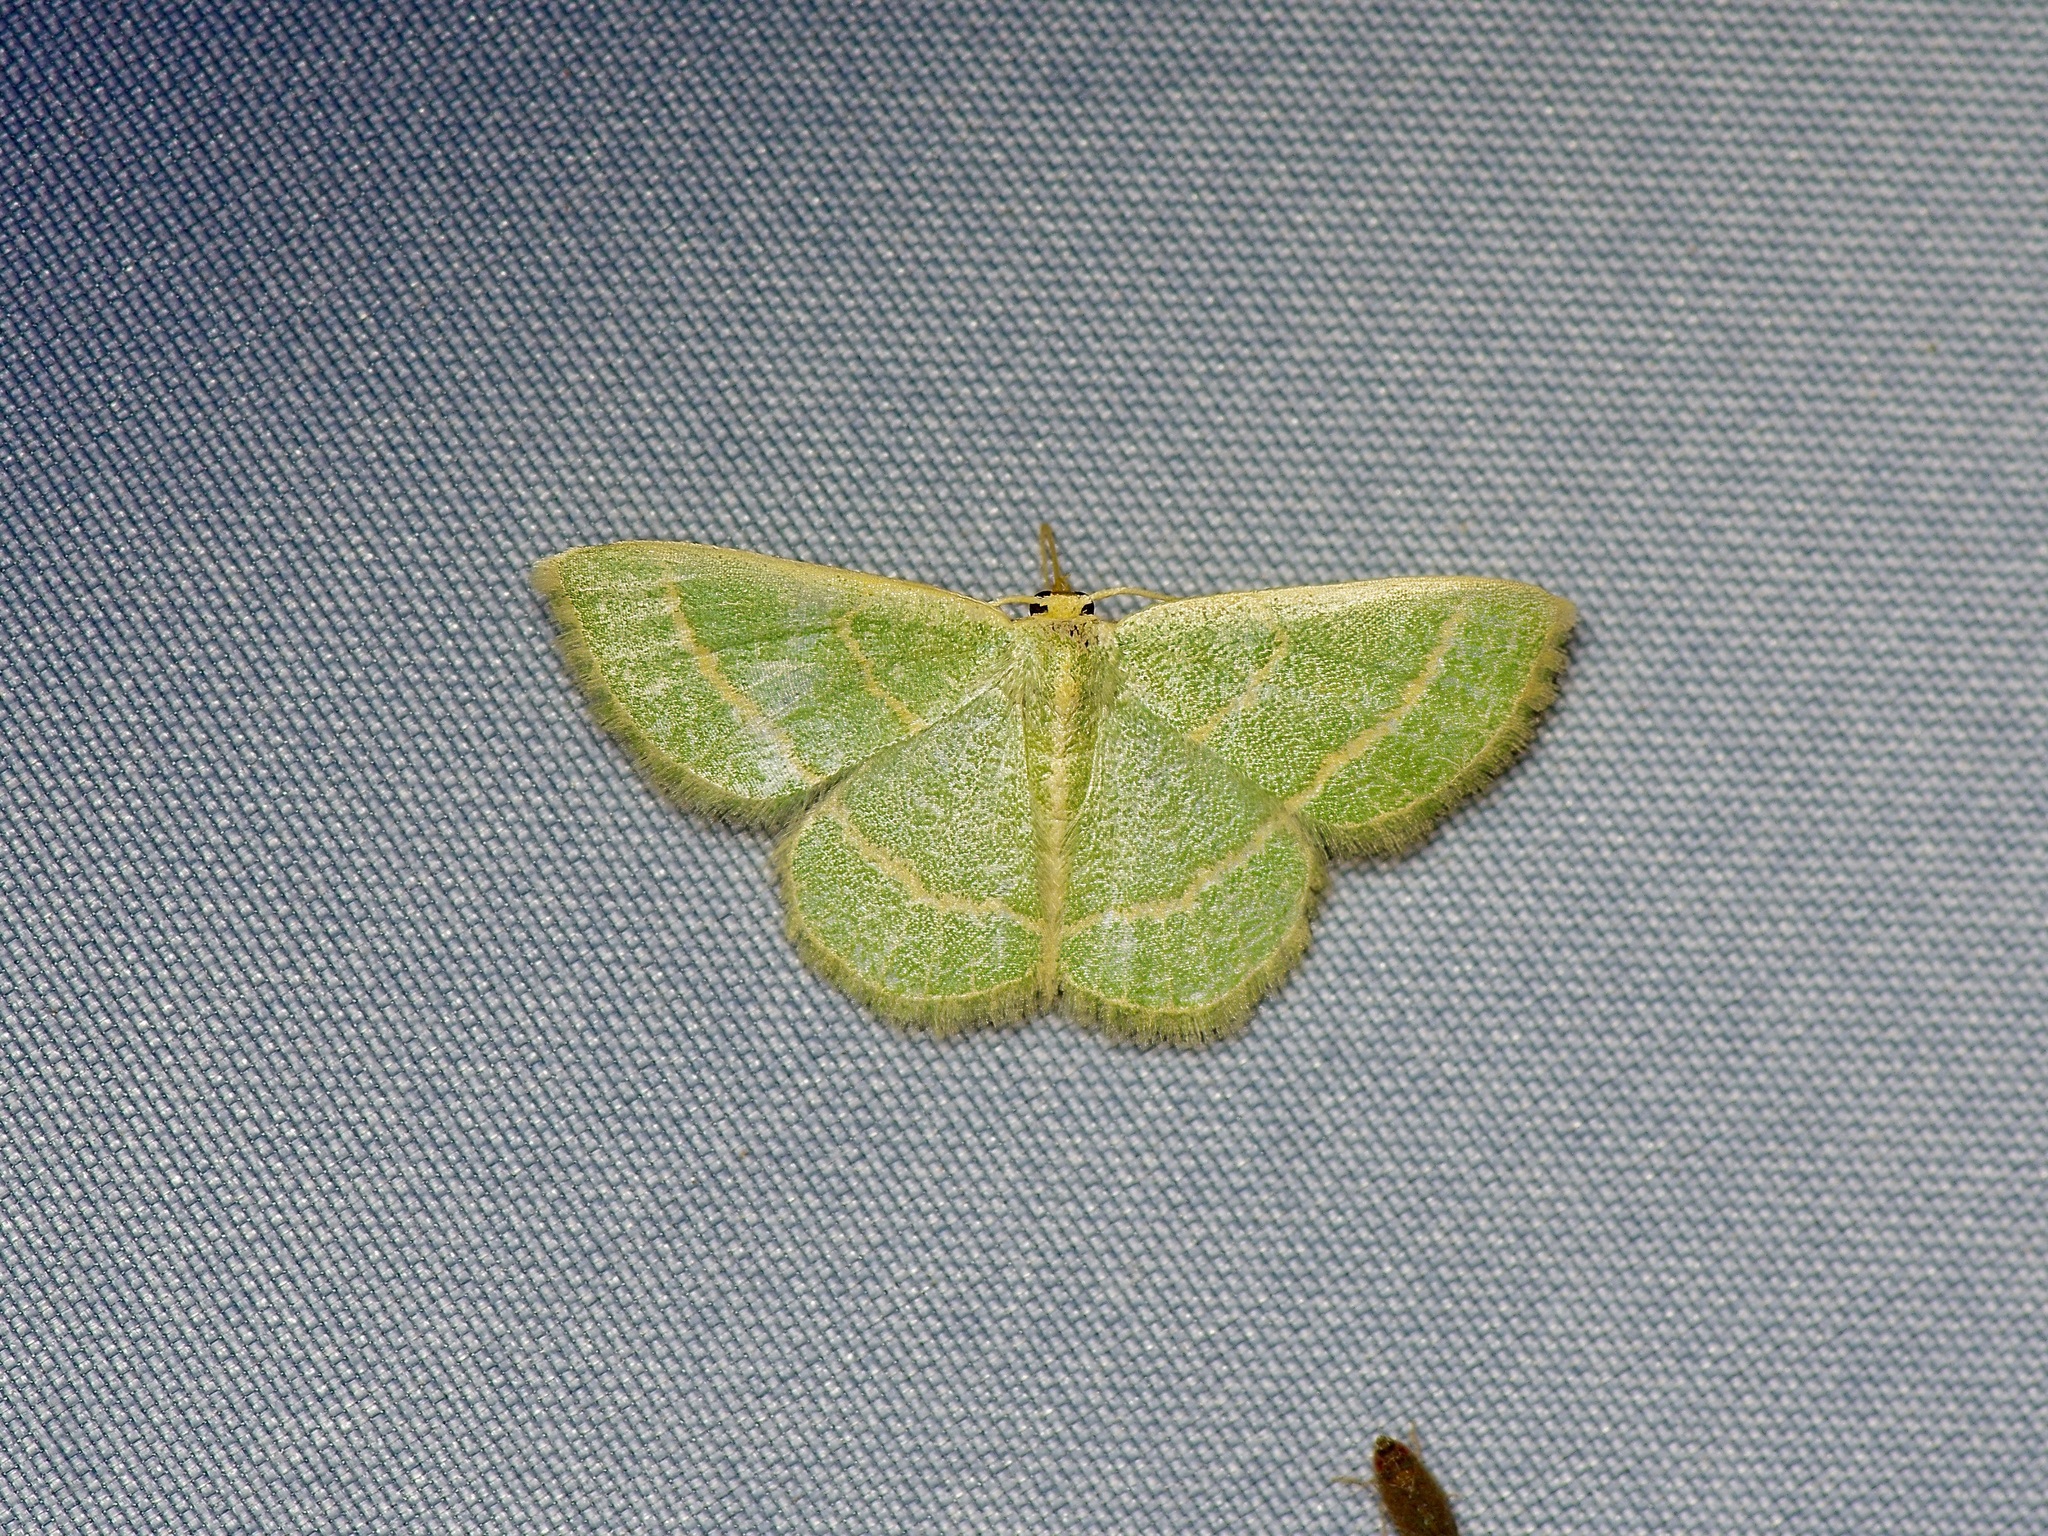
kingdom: Animalia
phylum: Arthropoda
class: Insecta
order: Lepidoptera
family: Geometridae
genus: Chlorochlamys
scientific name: Chlorochlamys chloroleucaria
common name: Blackberry looper
